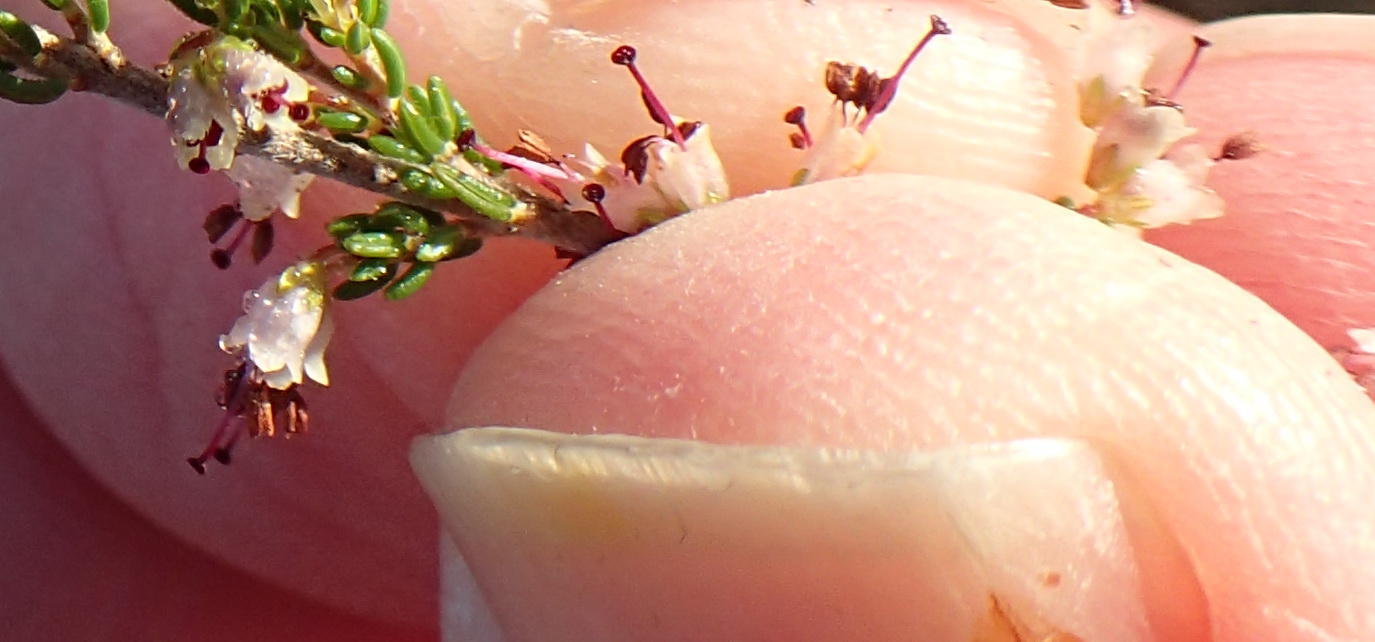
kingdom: Plantae
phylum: Tracheophyta
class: Magnoliopsida
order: Ericales
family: Ericaceae
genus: Erica
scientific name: Erica klotzschii
